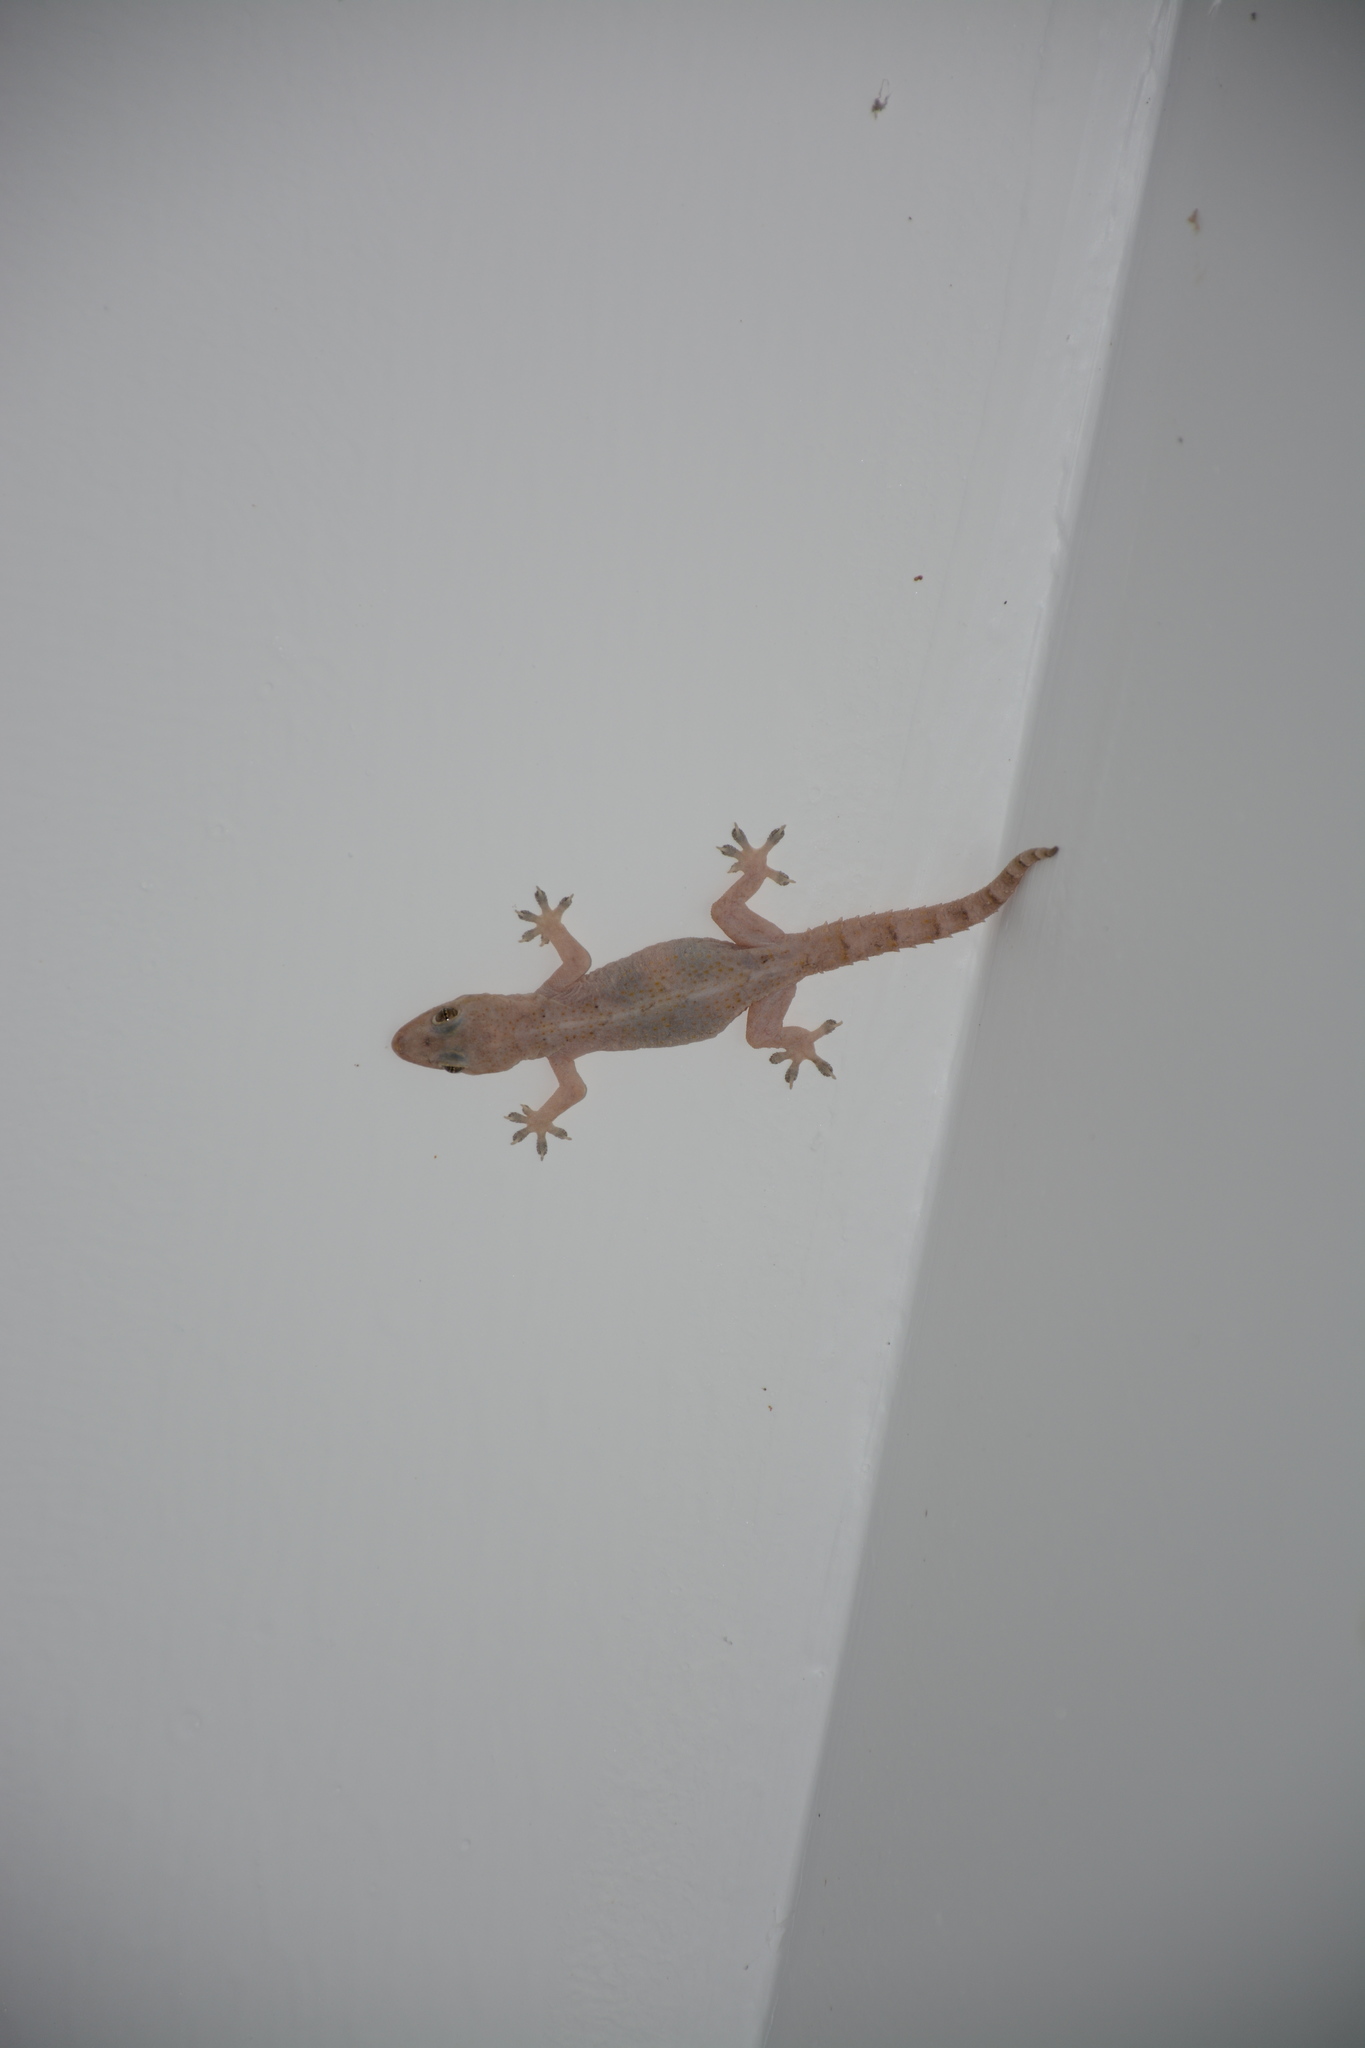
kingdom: Animalia
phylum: Chordata
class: Squamata
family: Gekkonidae
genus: Hemidactylus
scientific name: Hemidactylus mabouia
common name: House gecko
